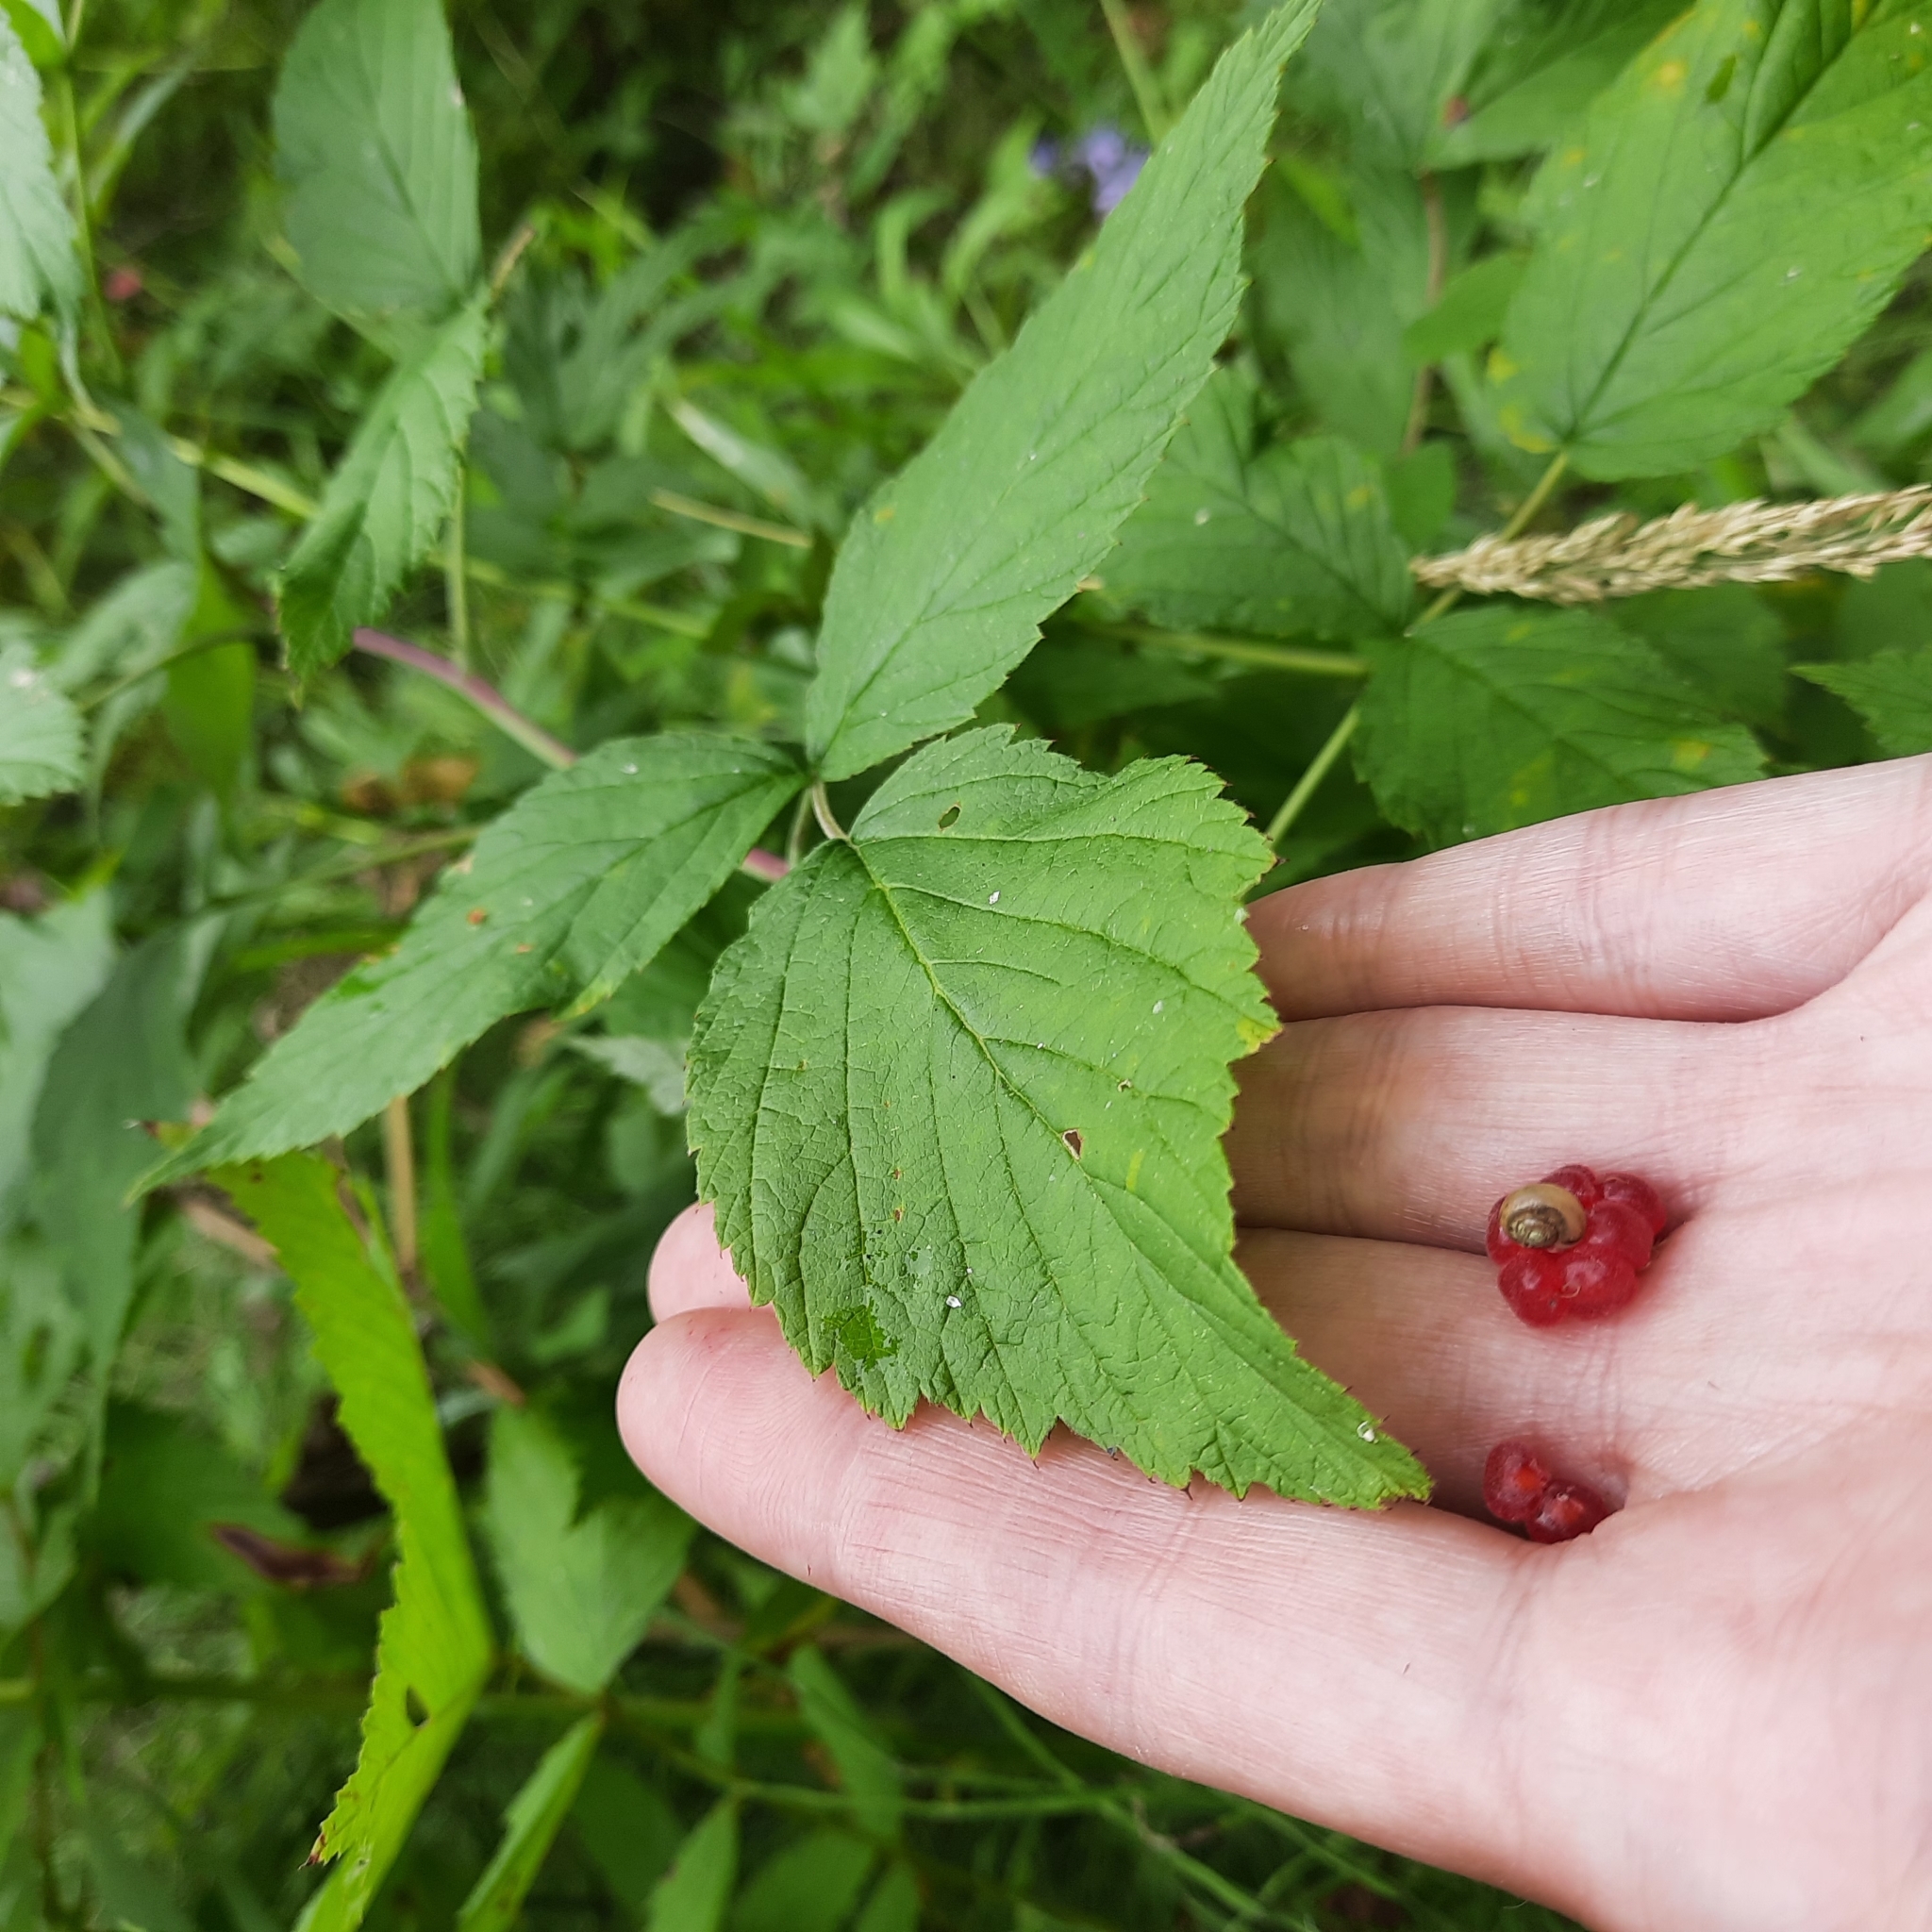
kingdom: Plantae
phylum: Tracheophyta
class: Magnoliopsida
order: Rosales
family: Rosaceae
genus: Rubus
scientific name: Rubus idaeus
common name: Raspberry
